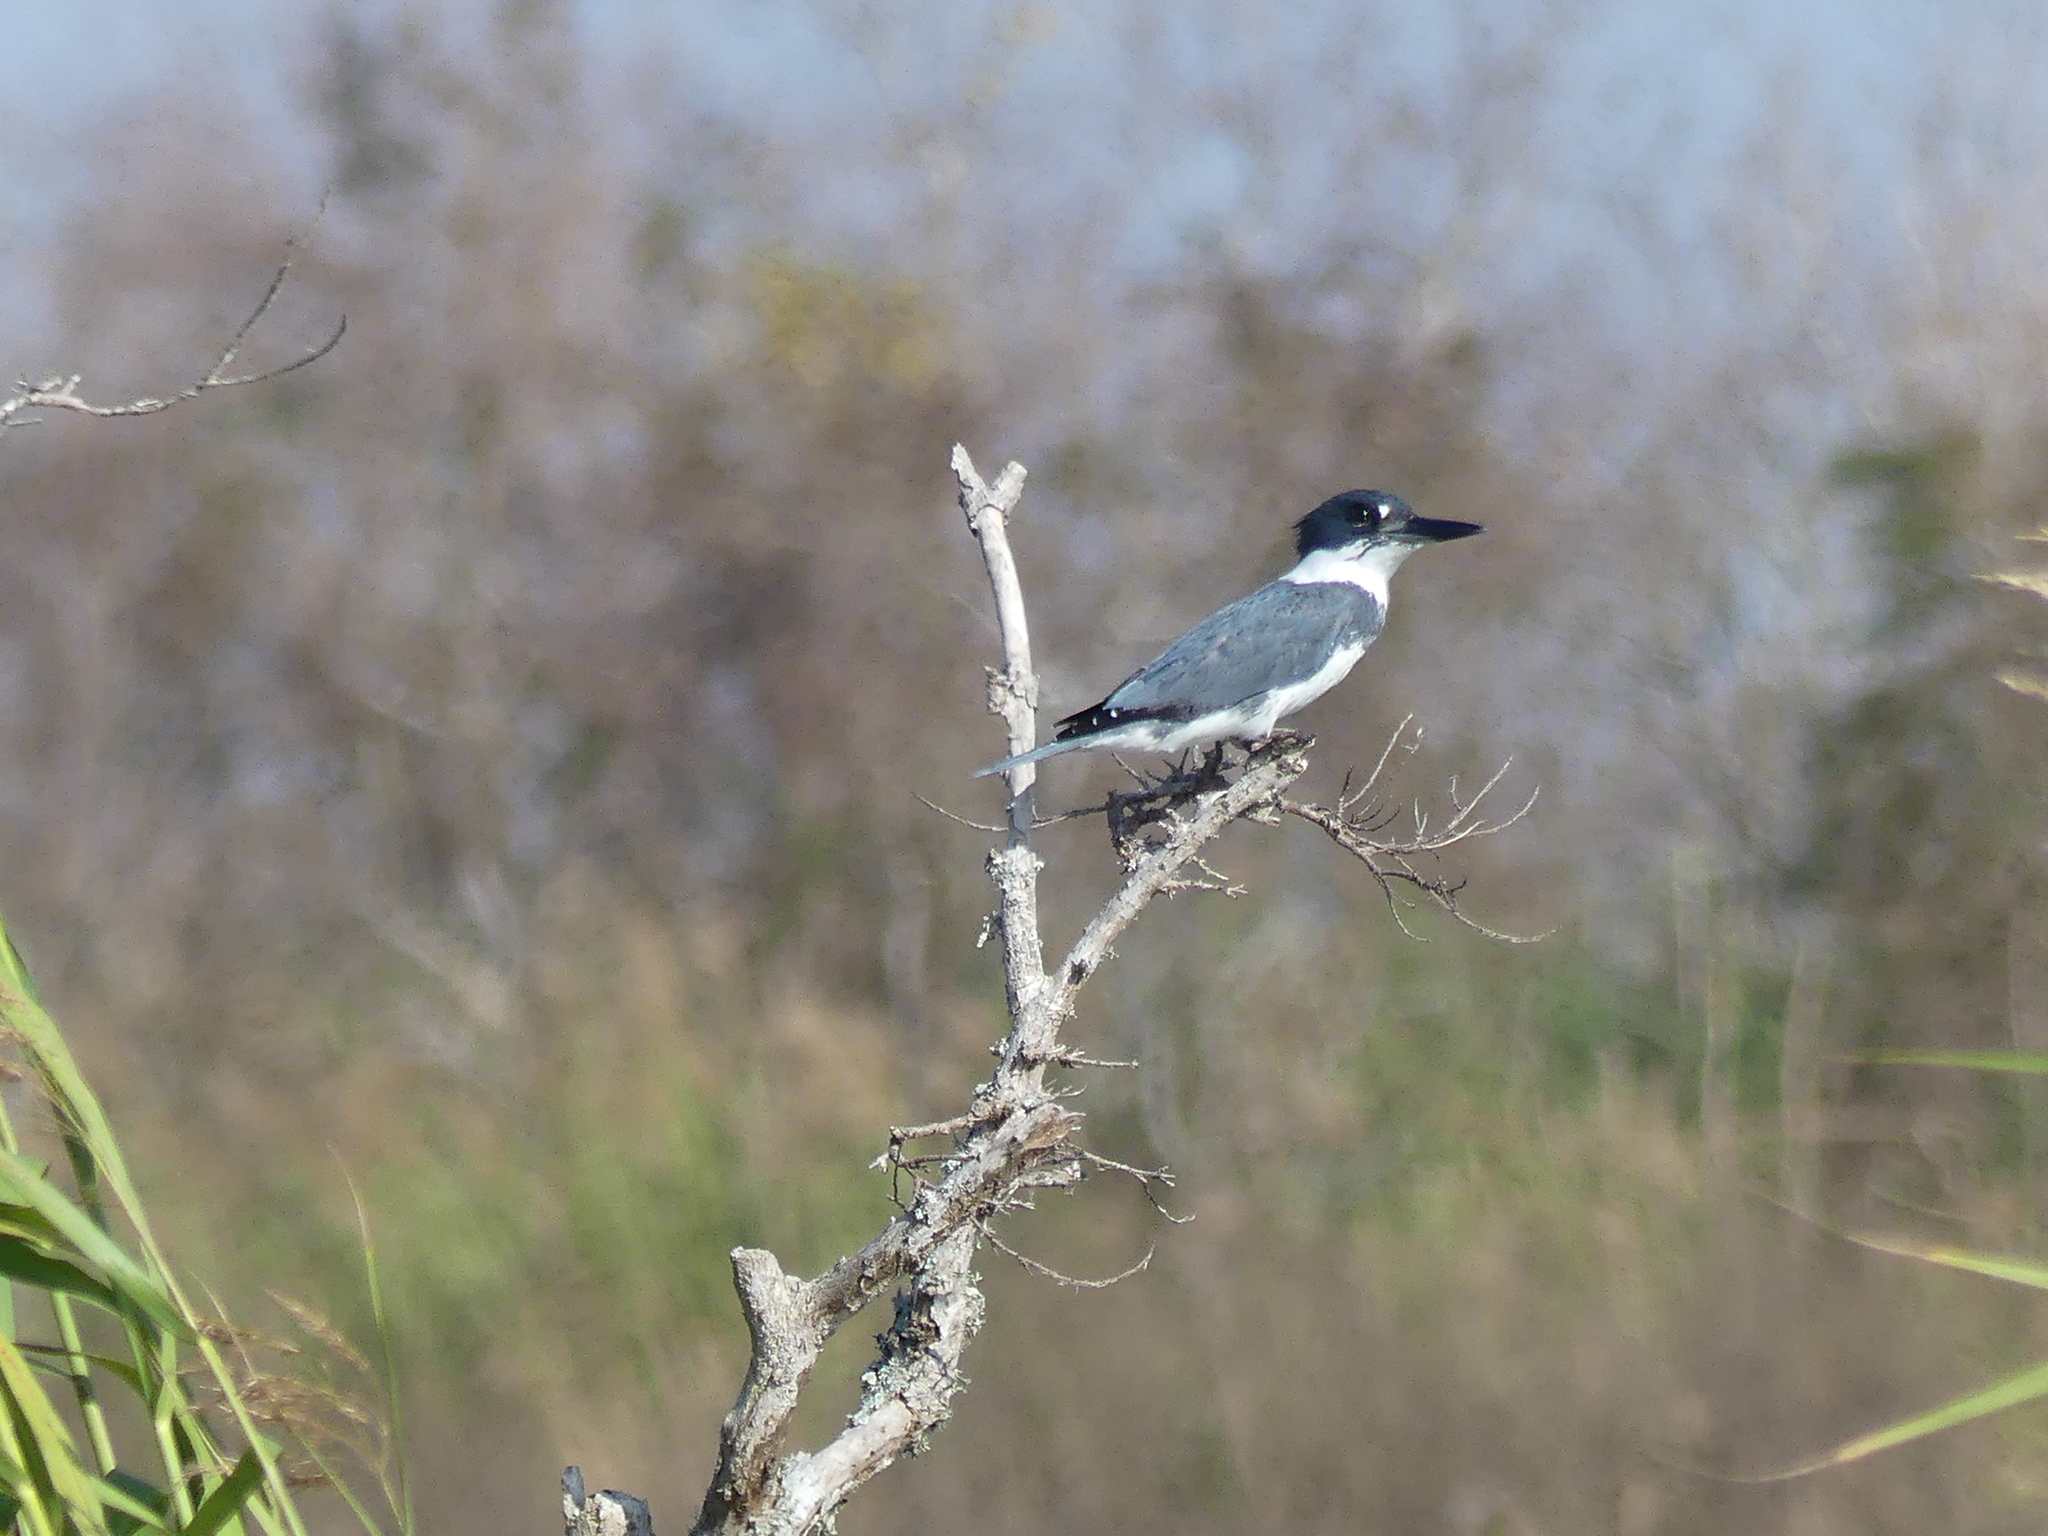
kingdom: Animalia
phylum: Chordata
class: Aves
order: Coraciiformes
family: Alcedinidae
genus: Megaceryle
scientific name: Megaceryle alcyon
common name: Belted kingfisher
